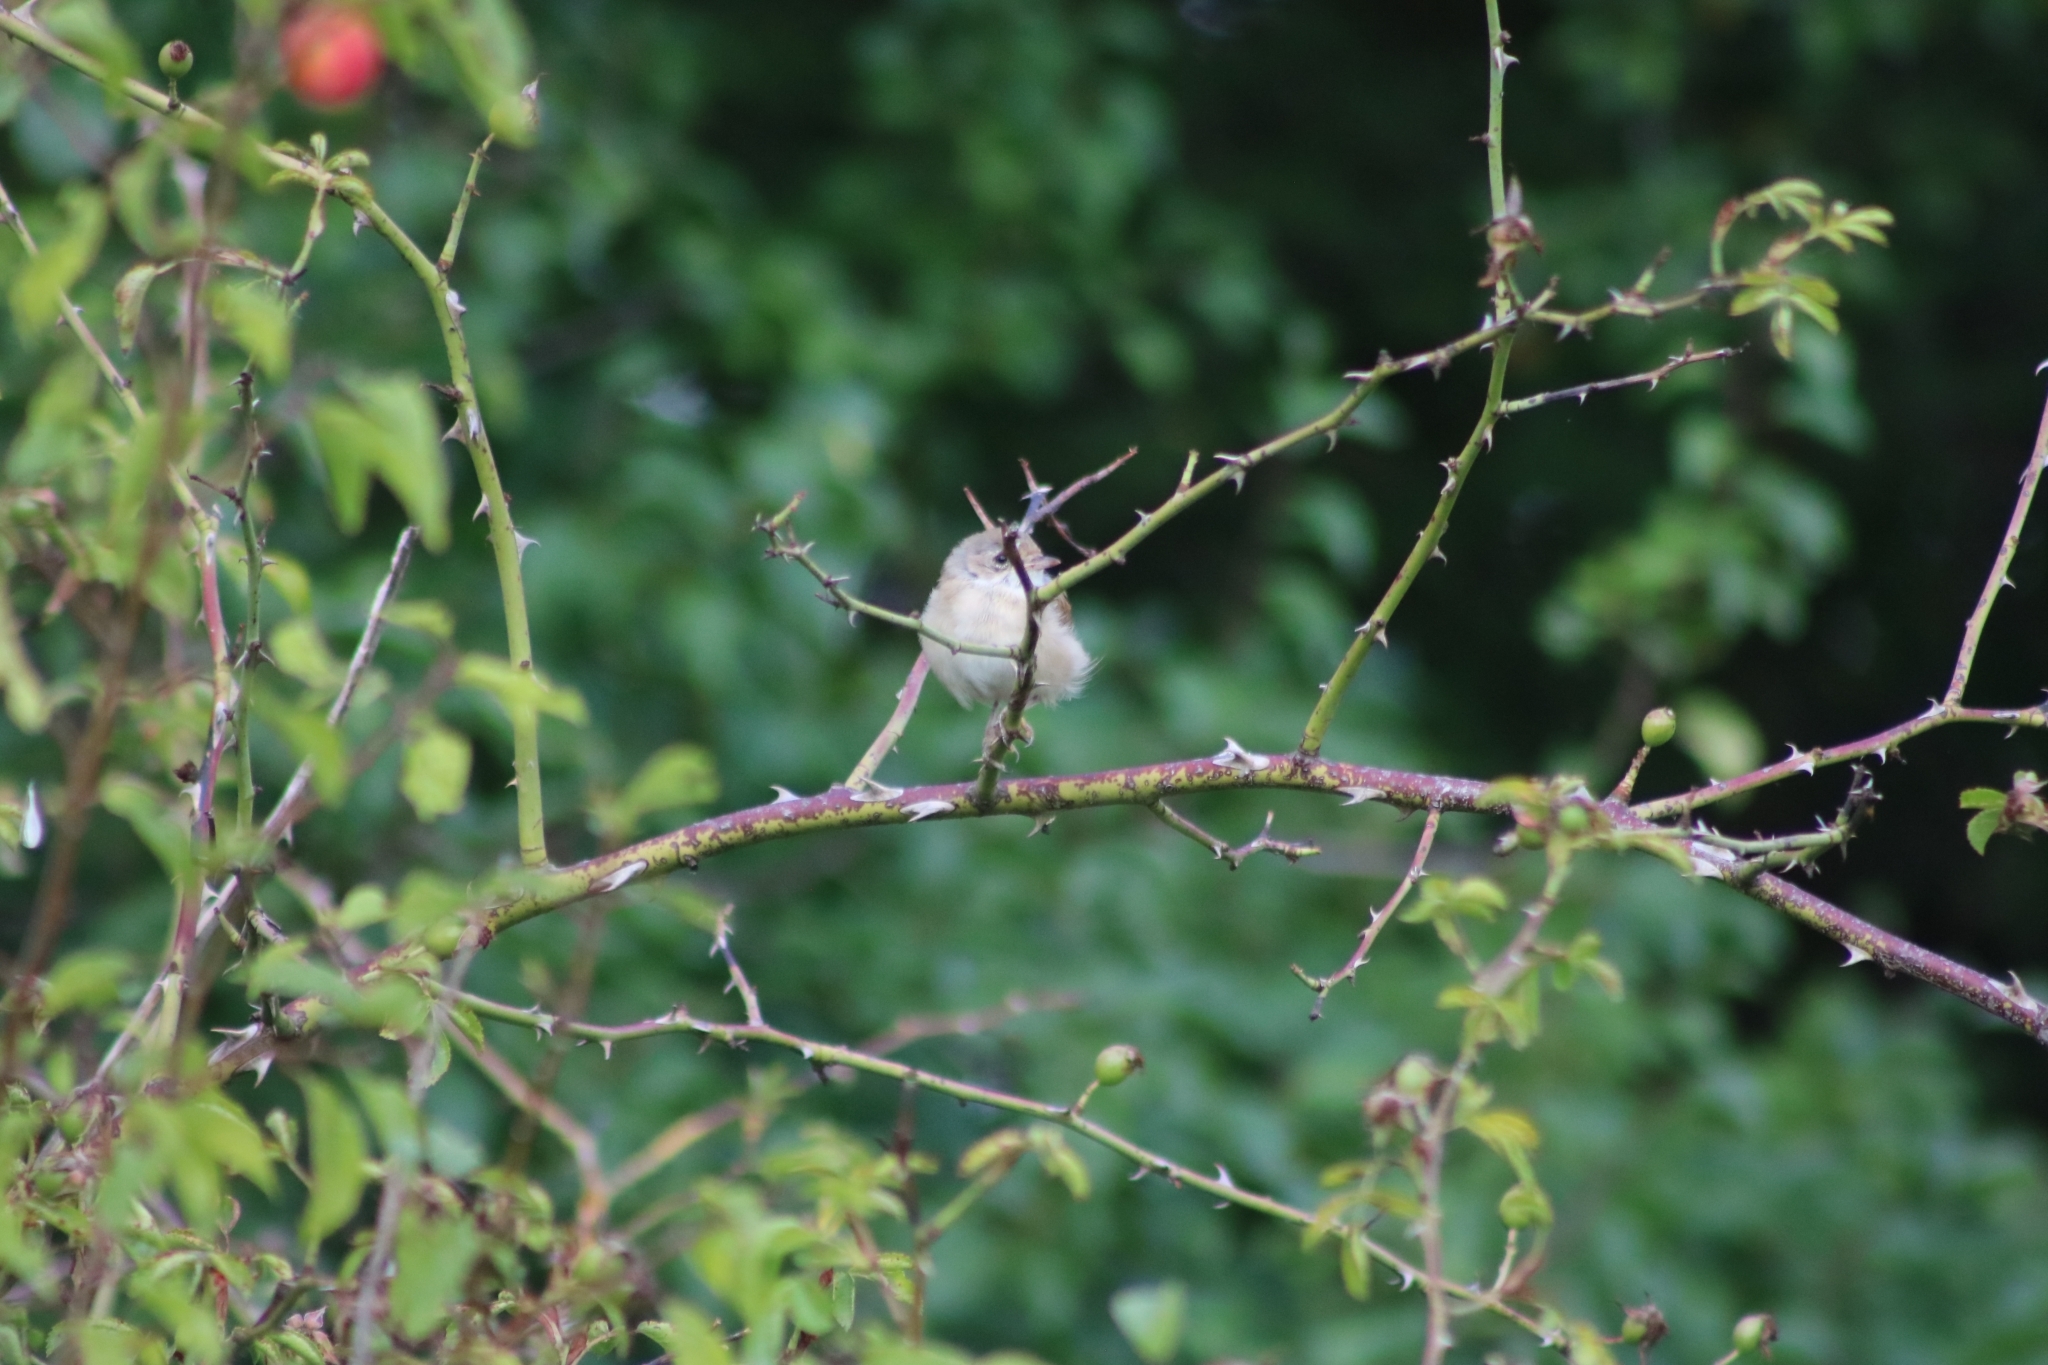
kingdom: Animalia
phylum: Chordata
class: Aves
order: Passeriformes
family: Sylviidae
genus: Sylvia
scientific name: Sylvia communis
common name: Common whitethroat
